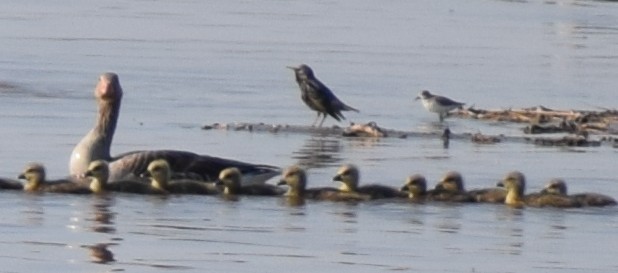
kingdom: Animalia
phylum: Chordata
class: Aves
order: Passeriformes
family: Sturnidae
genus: Sturnus
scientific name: Sturnus vulgaris
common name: Common starling
